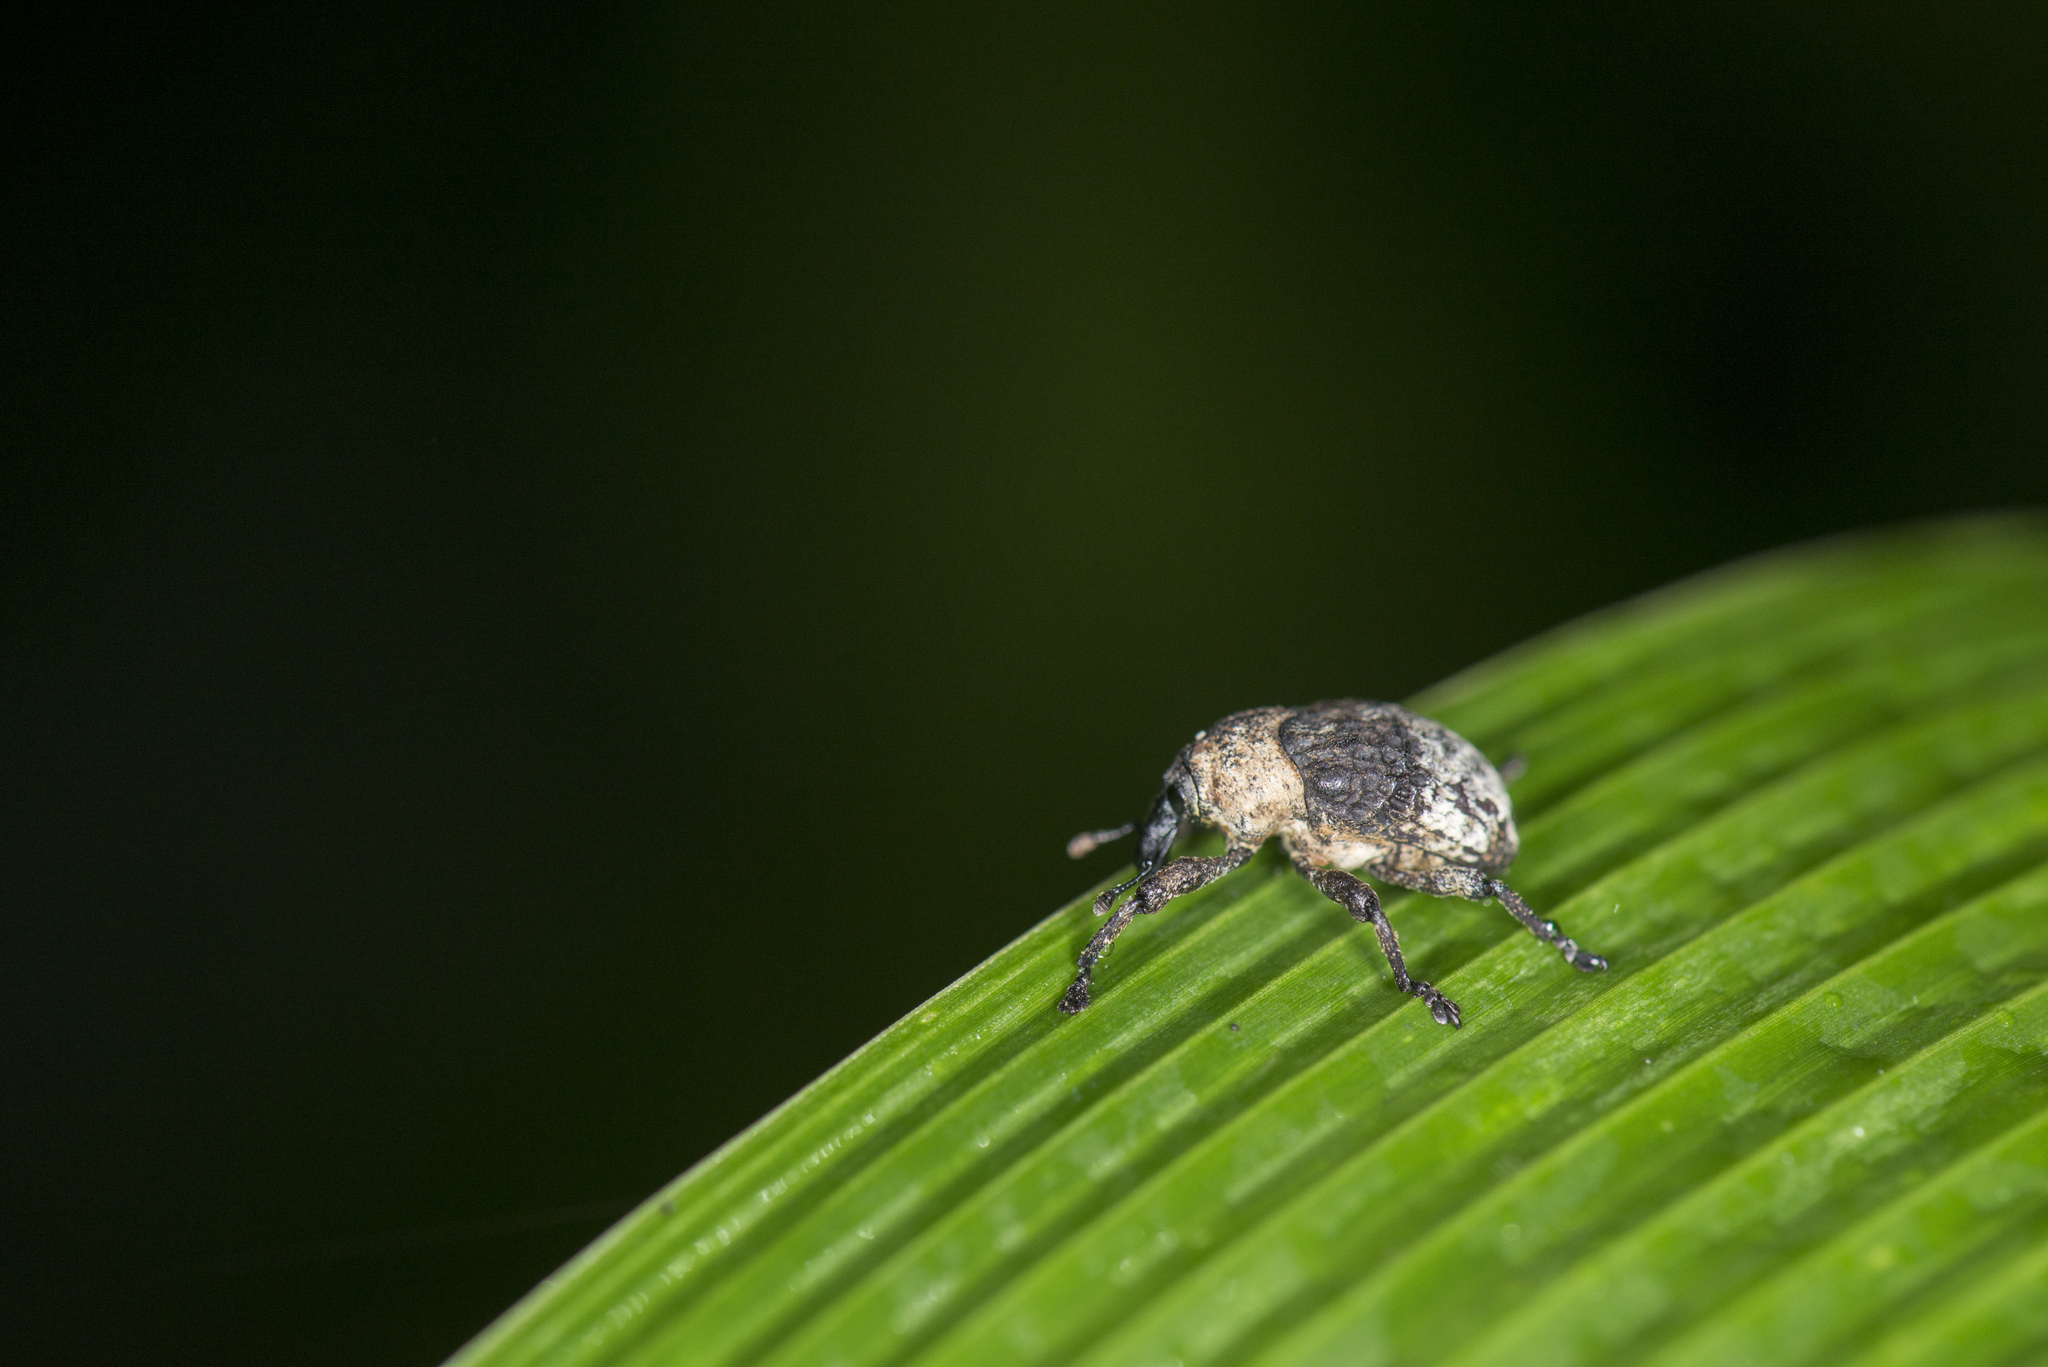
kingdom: Animalia
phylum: Arthropoda
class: Insecta
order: Coleoptera
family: Curculionidae
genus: Alcides
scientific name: Alcides trifidus
